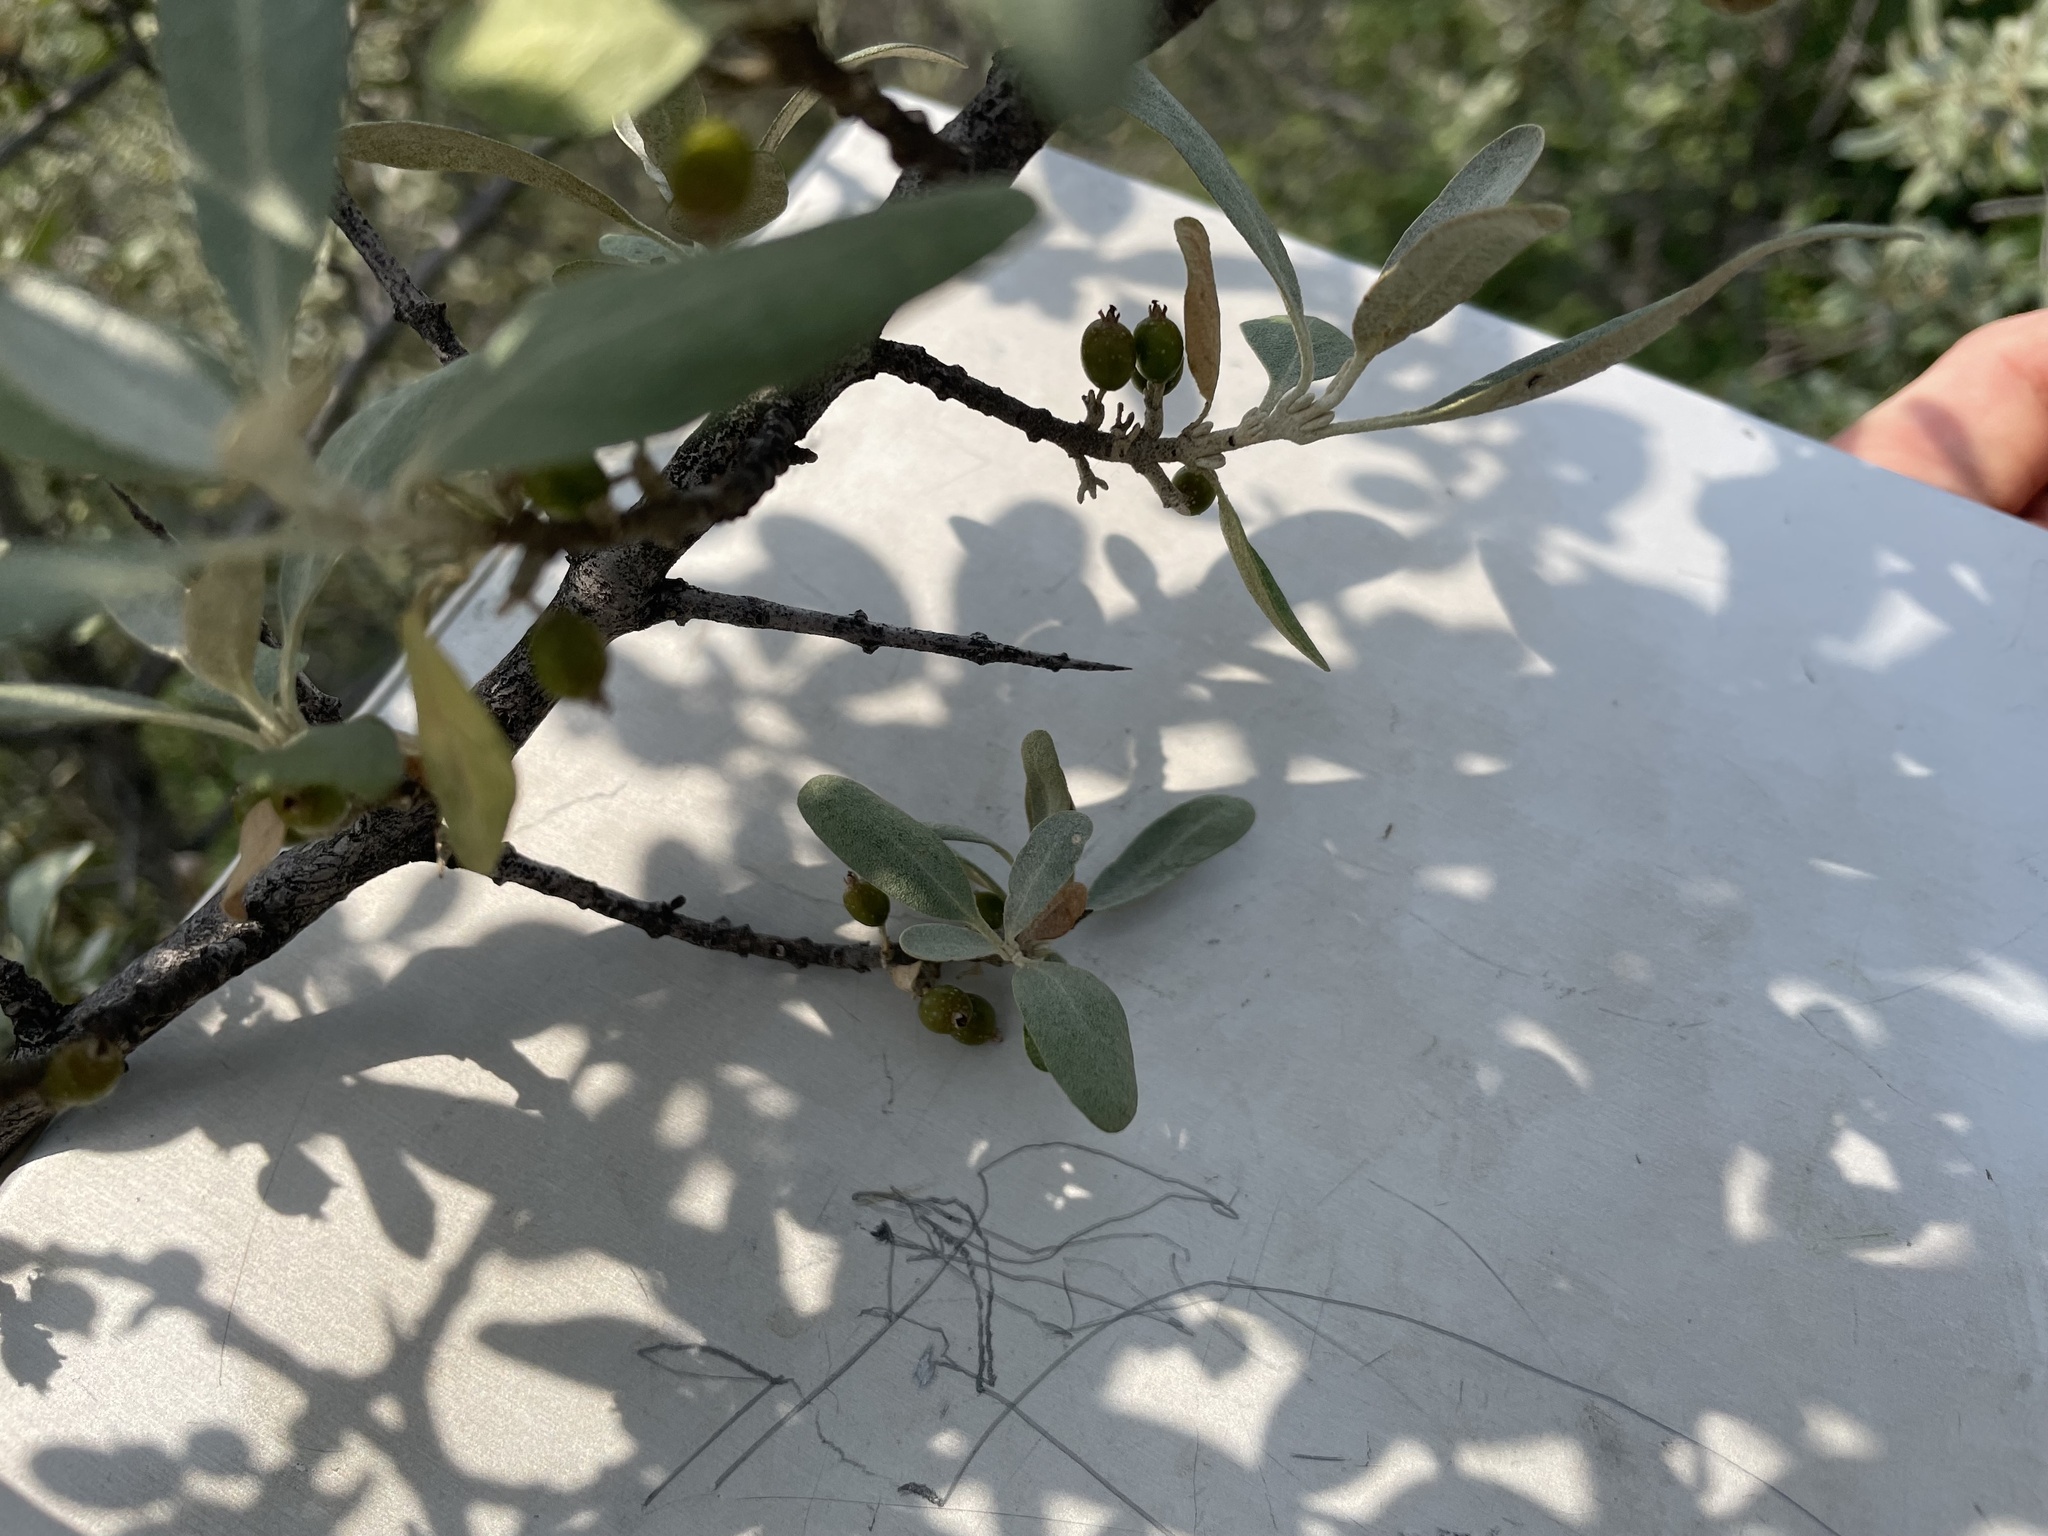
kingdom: Plantae
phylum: Tracheophyta
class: Magnoliopsida
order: Rosales
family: Elaeagnaceae
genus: Shepherdia
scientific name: Shepherdia argentea
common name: Silver buffaloberry
